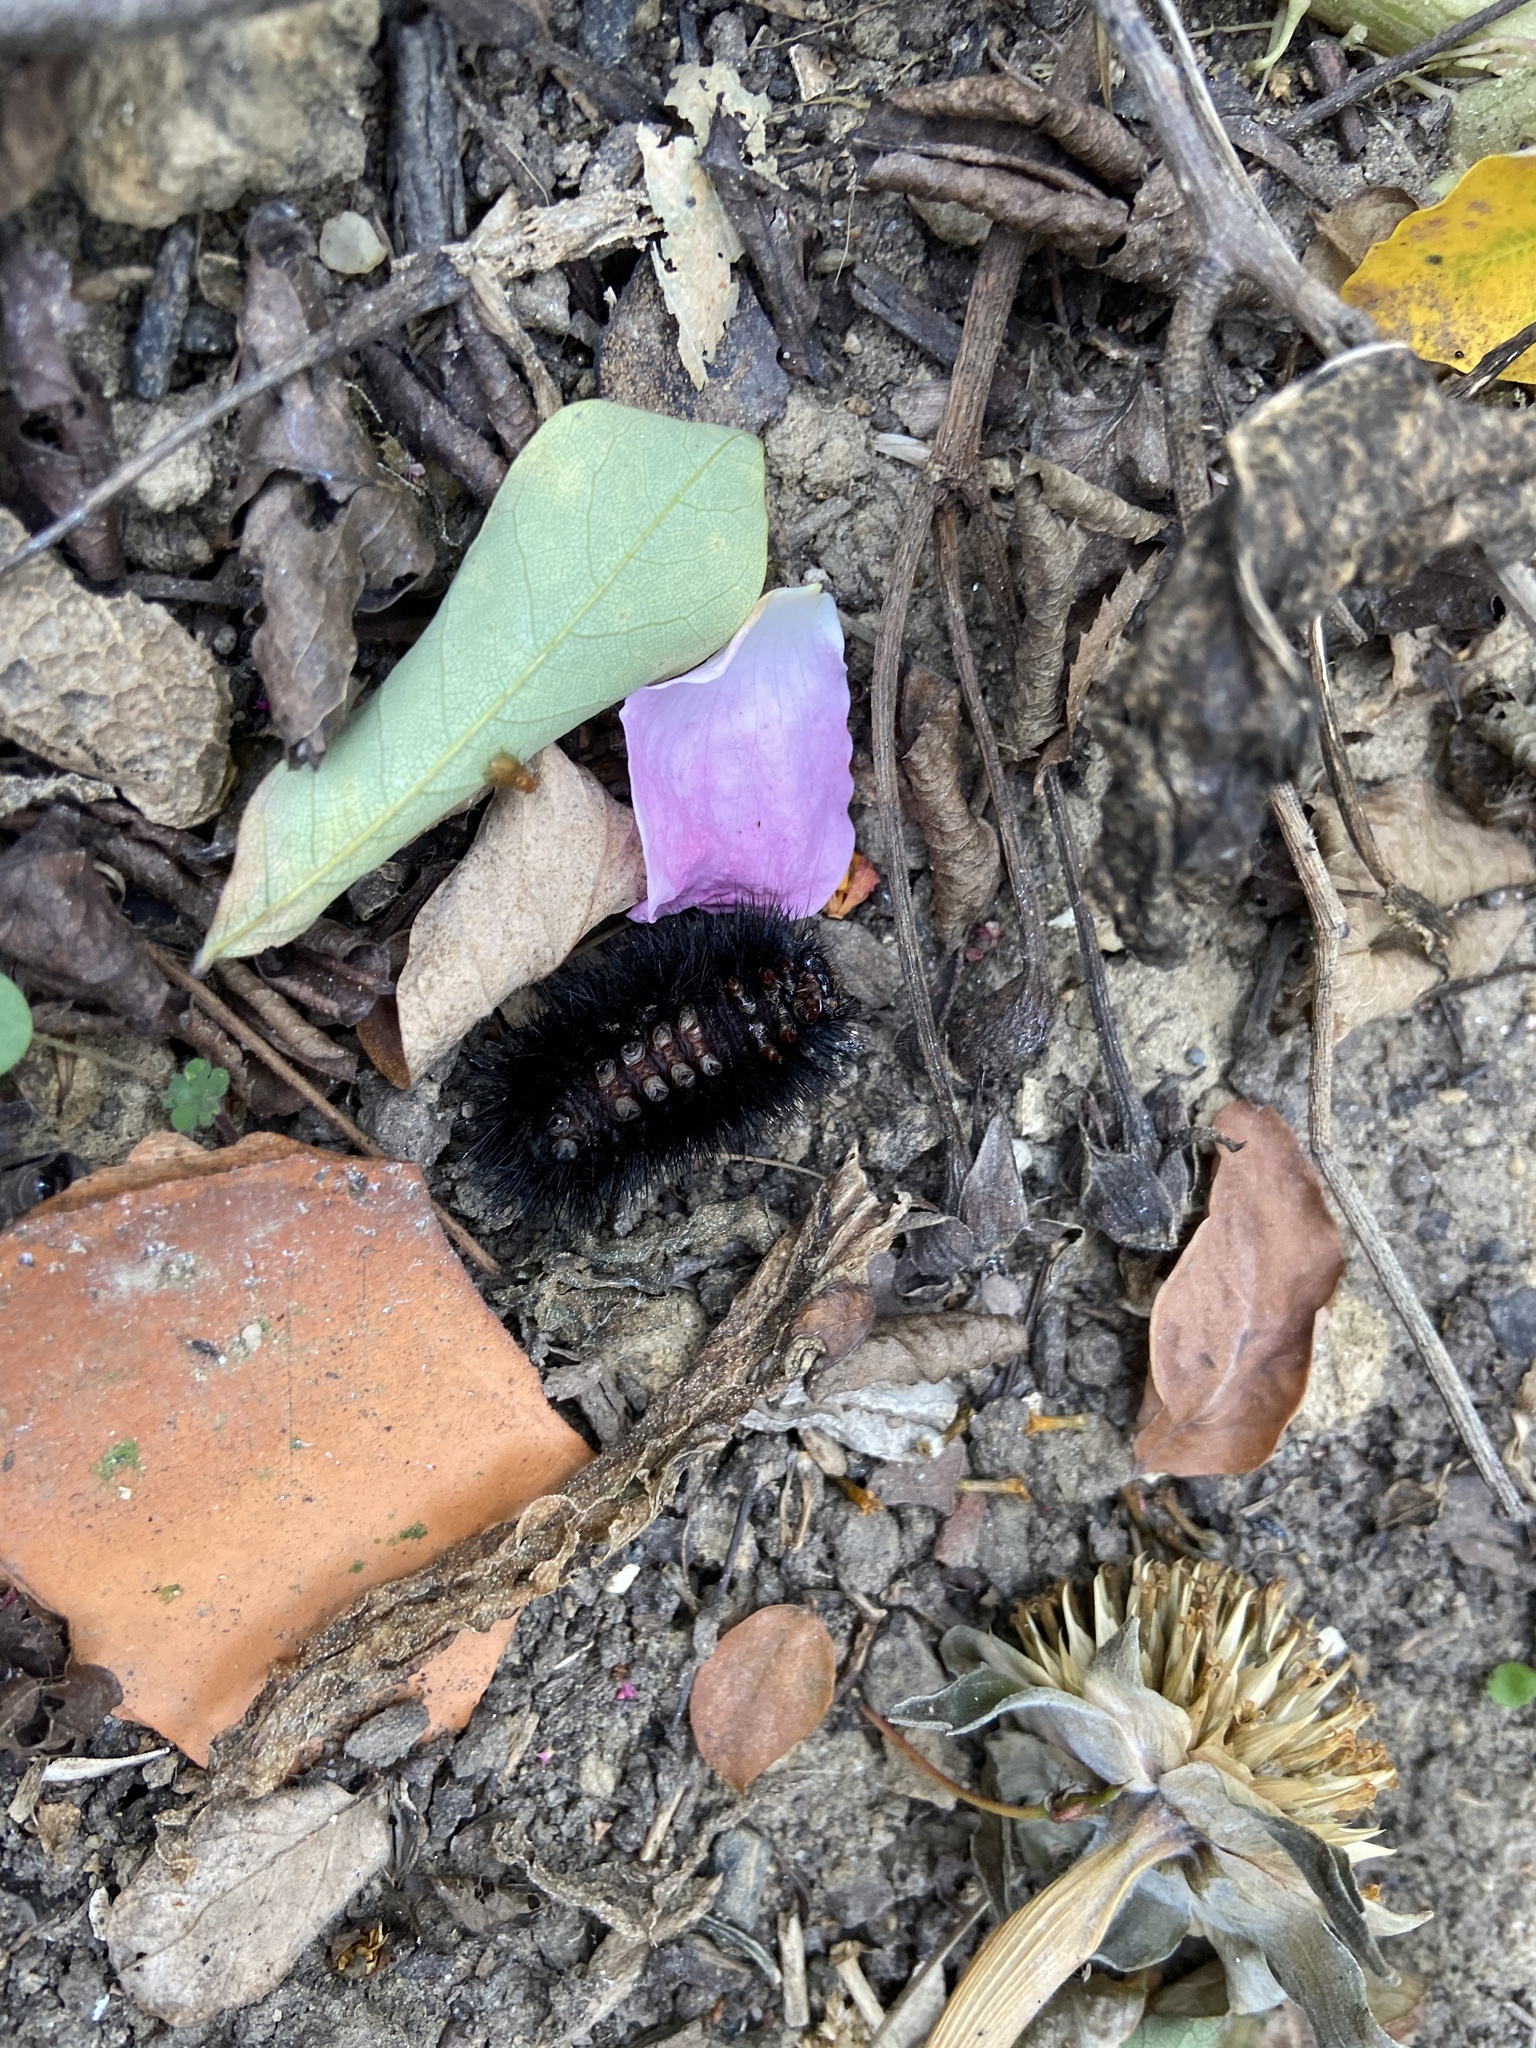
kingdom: Animalia
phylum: Arthropoda
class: Insecta
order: Lepidoptera
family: Erebidae
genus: Hypercompe
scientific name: Hypercompe scribonia
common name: Giant leopard moth
